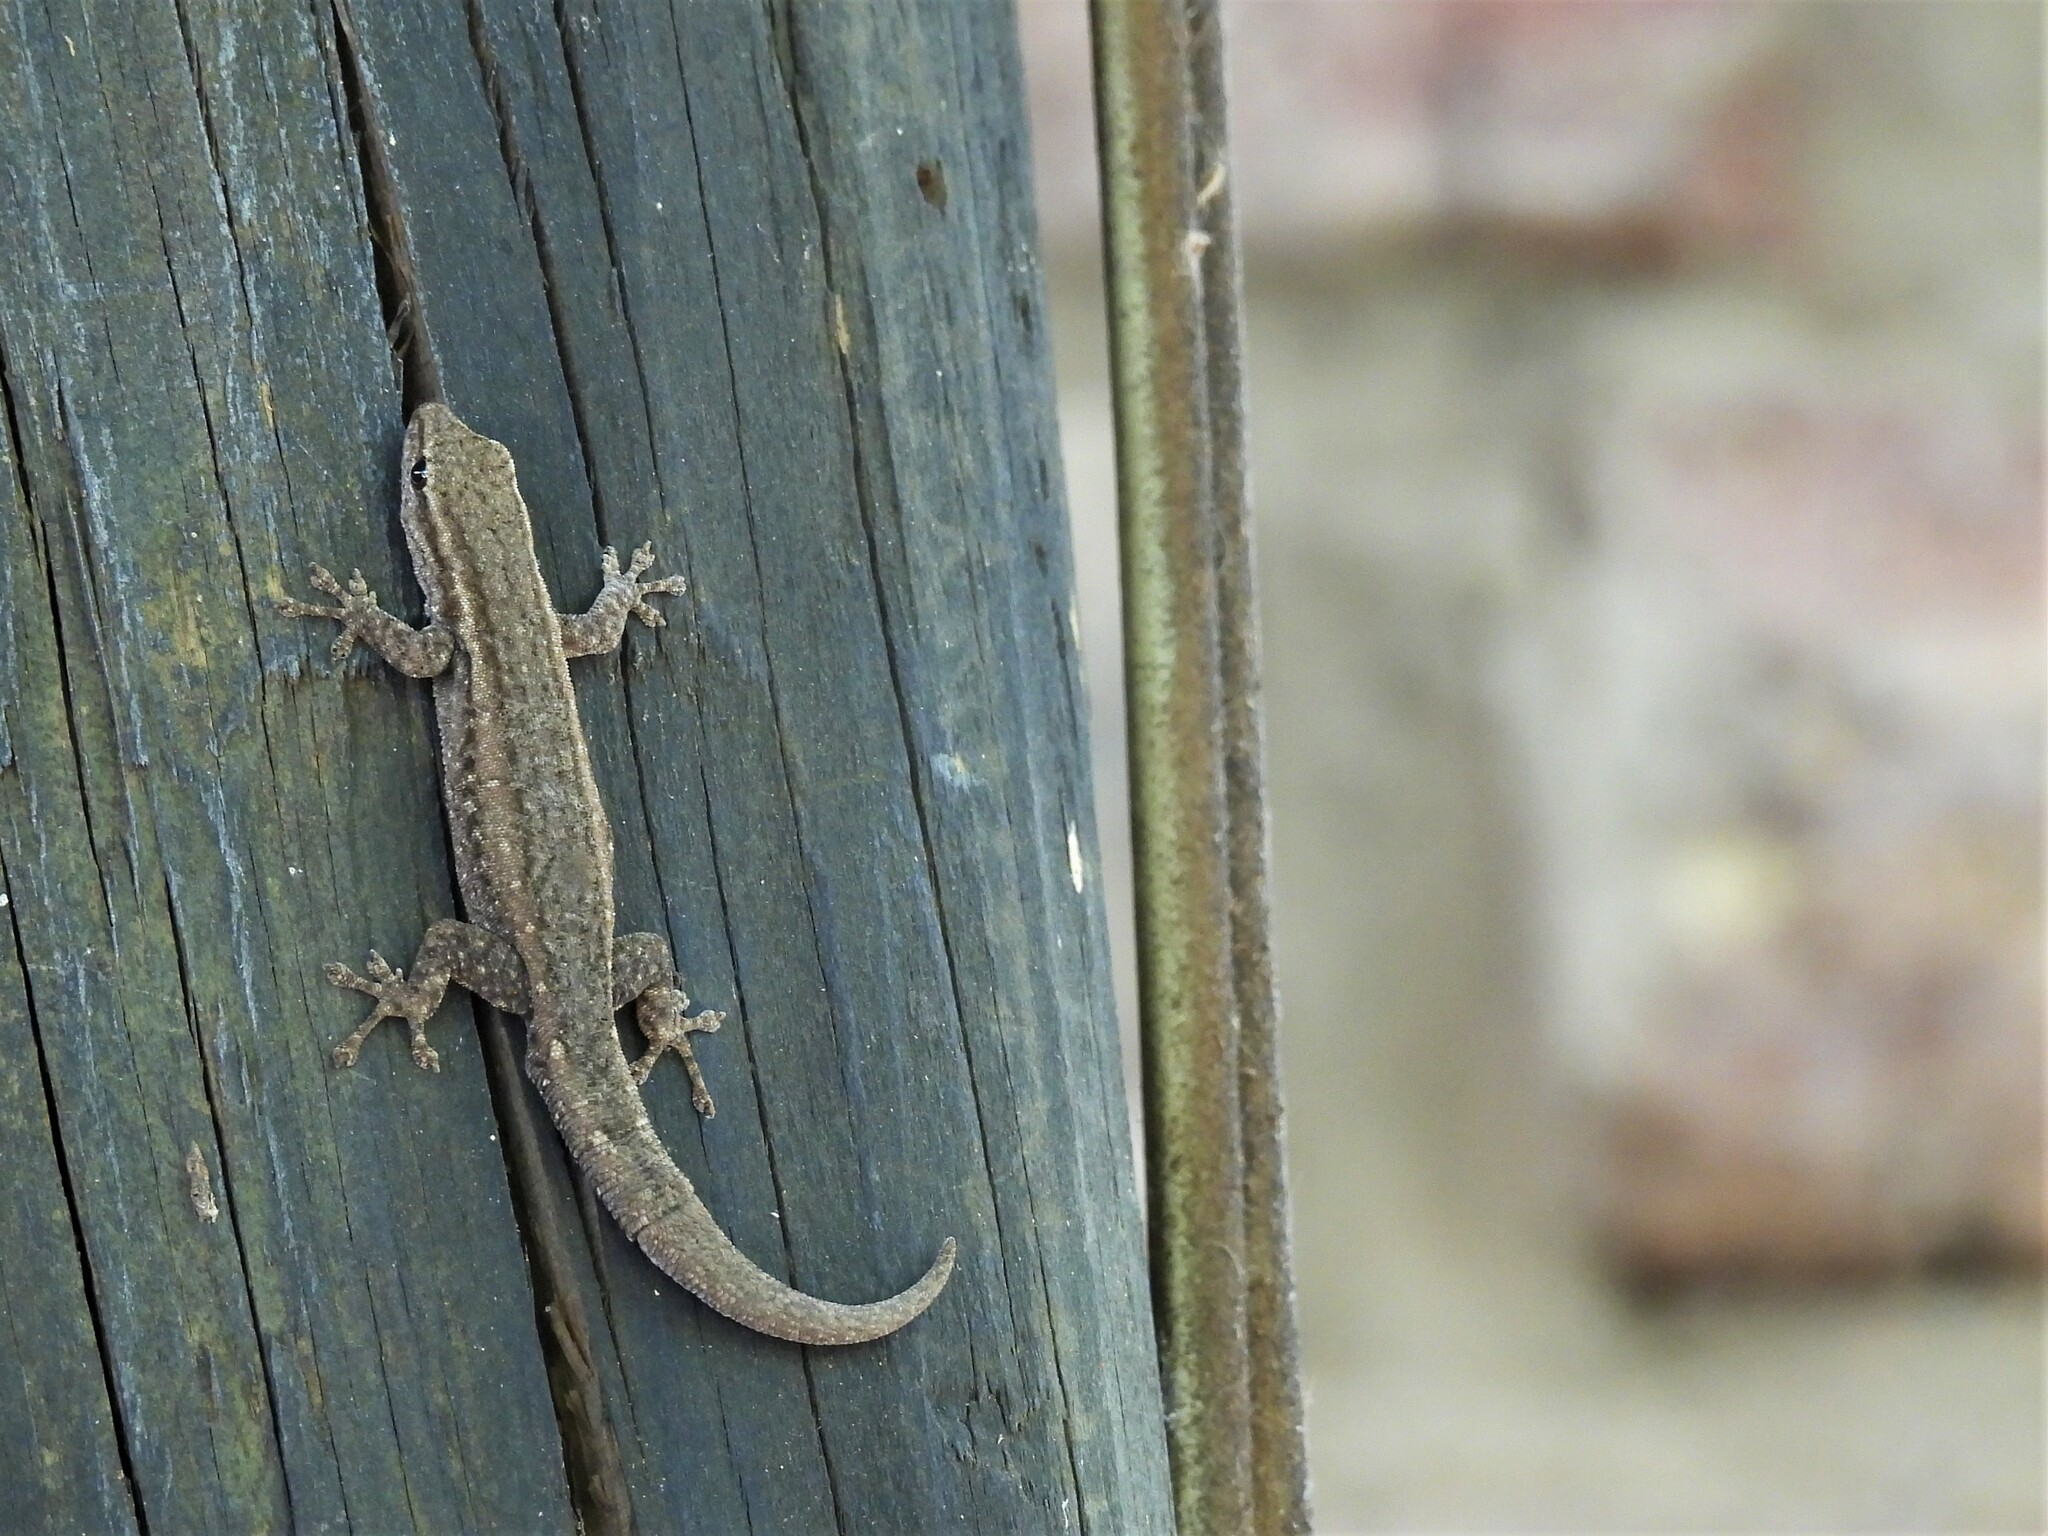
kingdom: Animalia
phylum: Chordata
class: Squamata
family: Gekkonidae
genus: Lygodactylus
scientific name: Lygodactylus capensis
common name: Cape dwarf gecko
